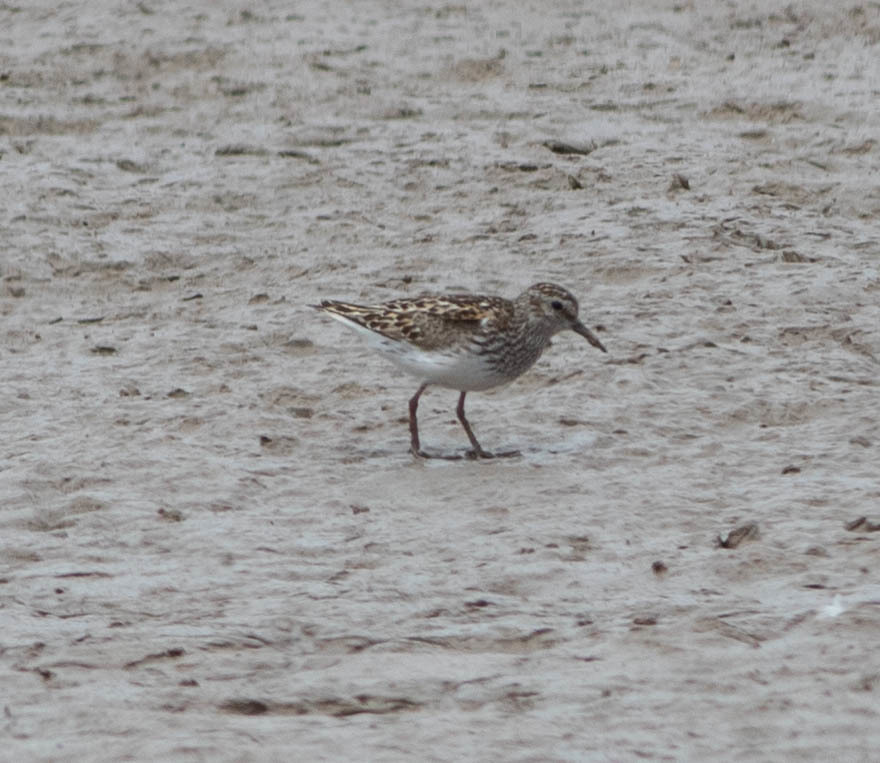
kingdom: Animalia
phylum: Chordata
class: Aves
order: Charadriiformes
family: Scolopacidae
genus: Calidris
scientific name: Calidris minutilla
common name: Least sandpiper
